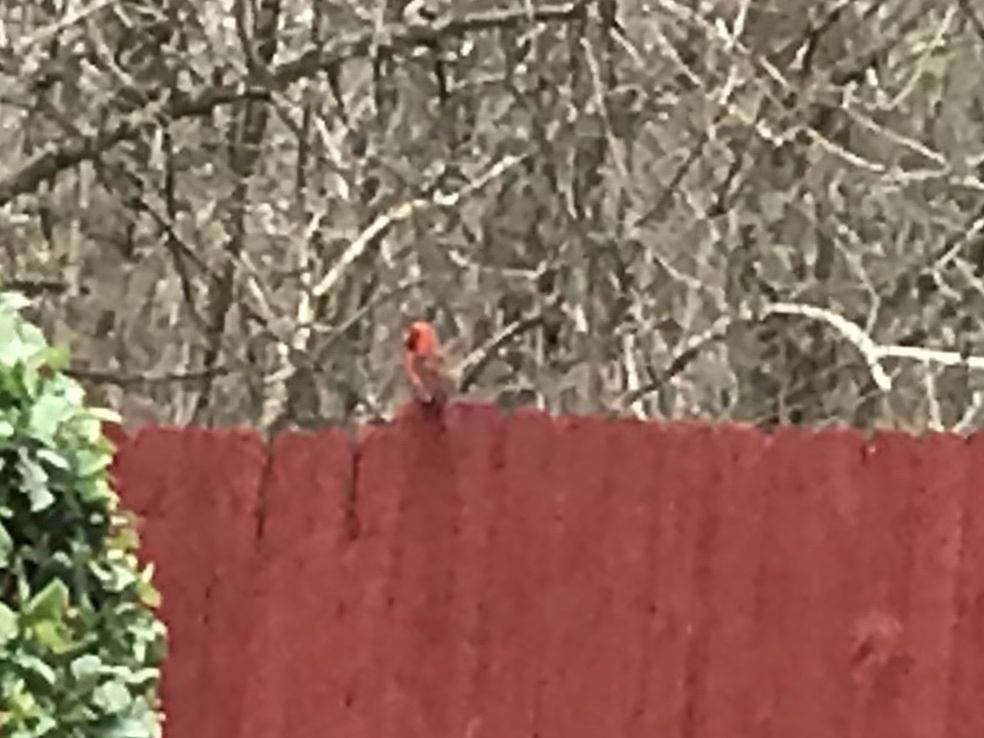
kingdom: Animalia
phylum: Chordata
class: Aves
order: Passeriformes
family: Cardinalidae
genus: Cardinalis
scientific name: Cardinalis cardinalis
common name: Northern cardinal
